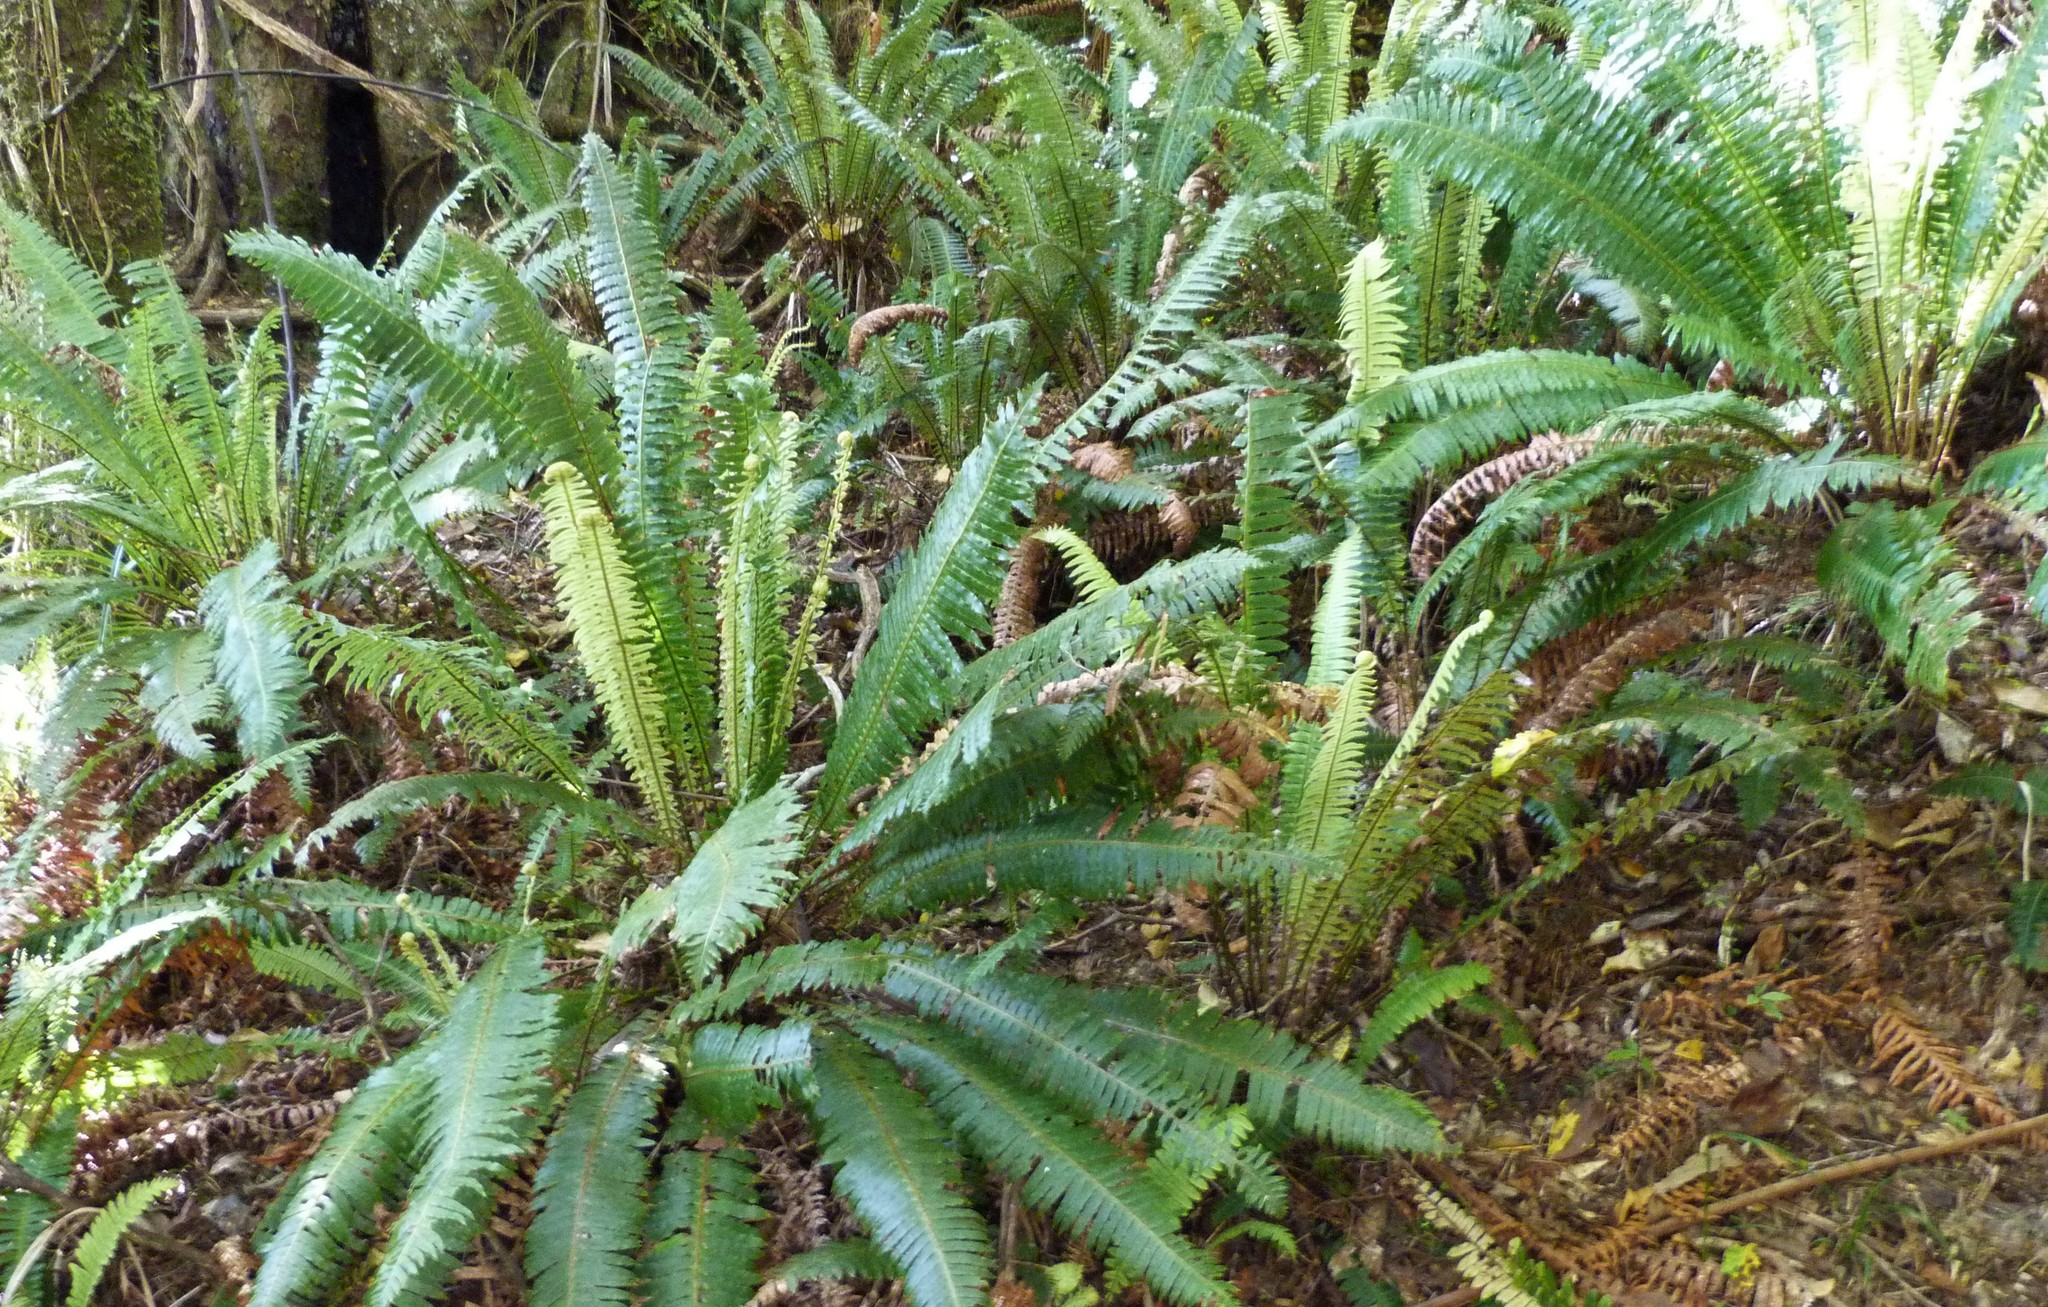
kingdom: Plantae
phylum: Tracheophyta
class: Polypodiopsida
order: Polypodiales
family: Blechnaceae
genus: Lomaria
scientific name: Lomaria discolor
